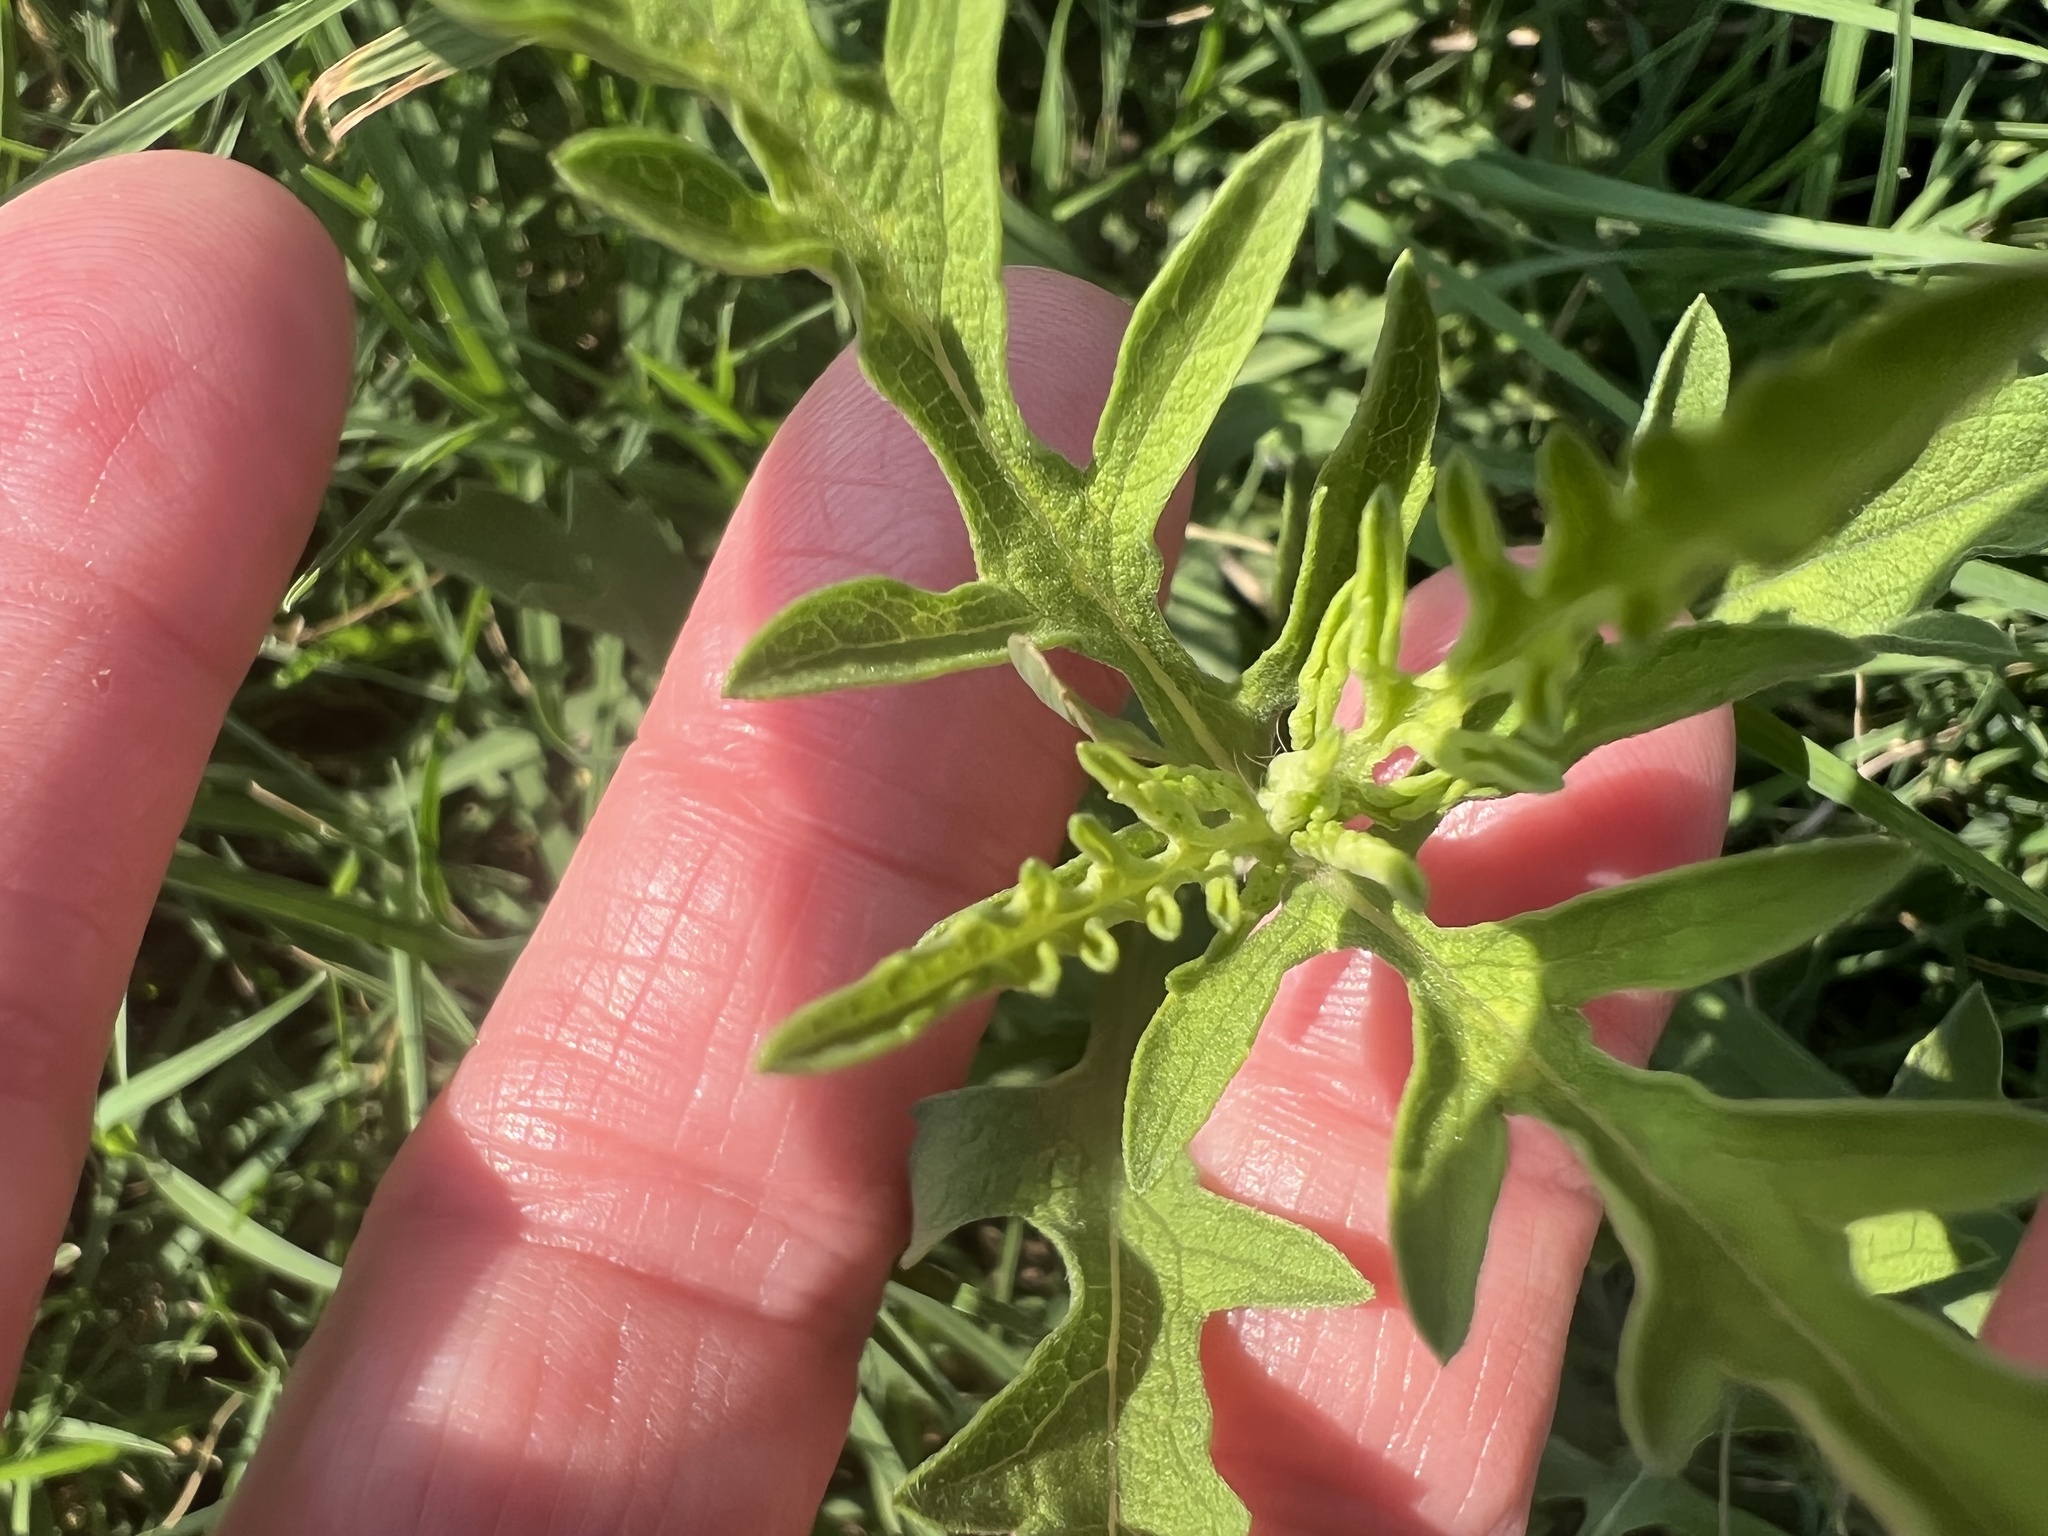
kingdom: Plantae
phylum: Tracheophyta
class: Magnoliopsida
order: Asterales
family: Asteraceae
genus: Ambrosia
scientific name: Ambrosia psilostachya
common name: Perennial ragweed
